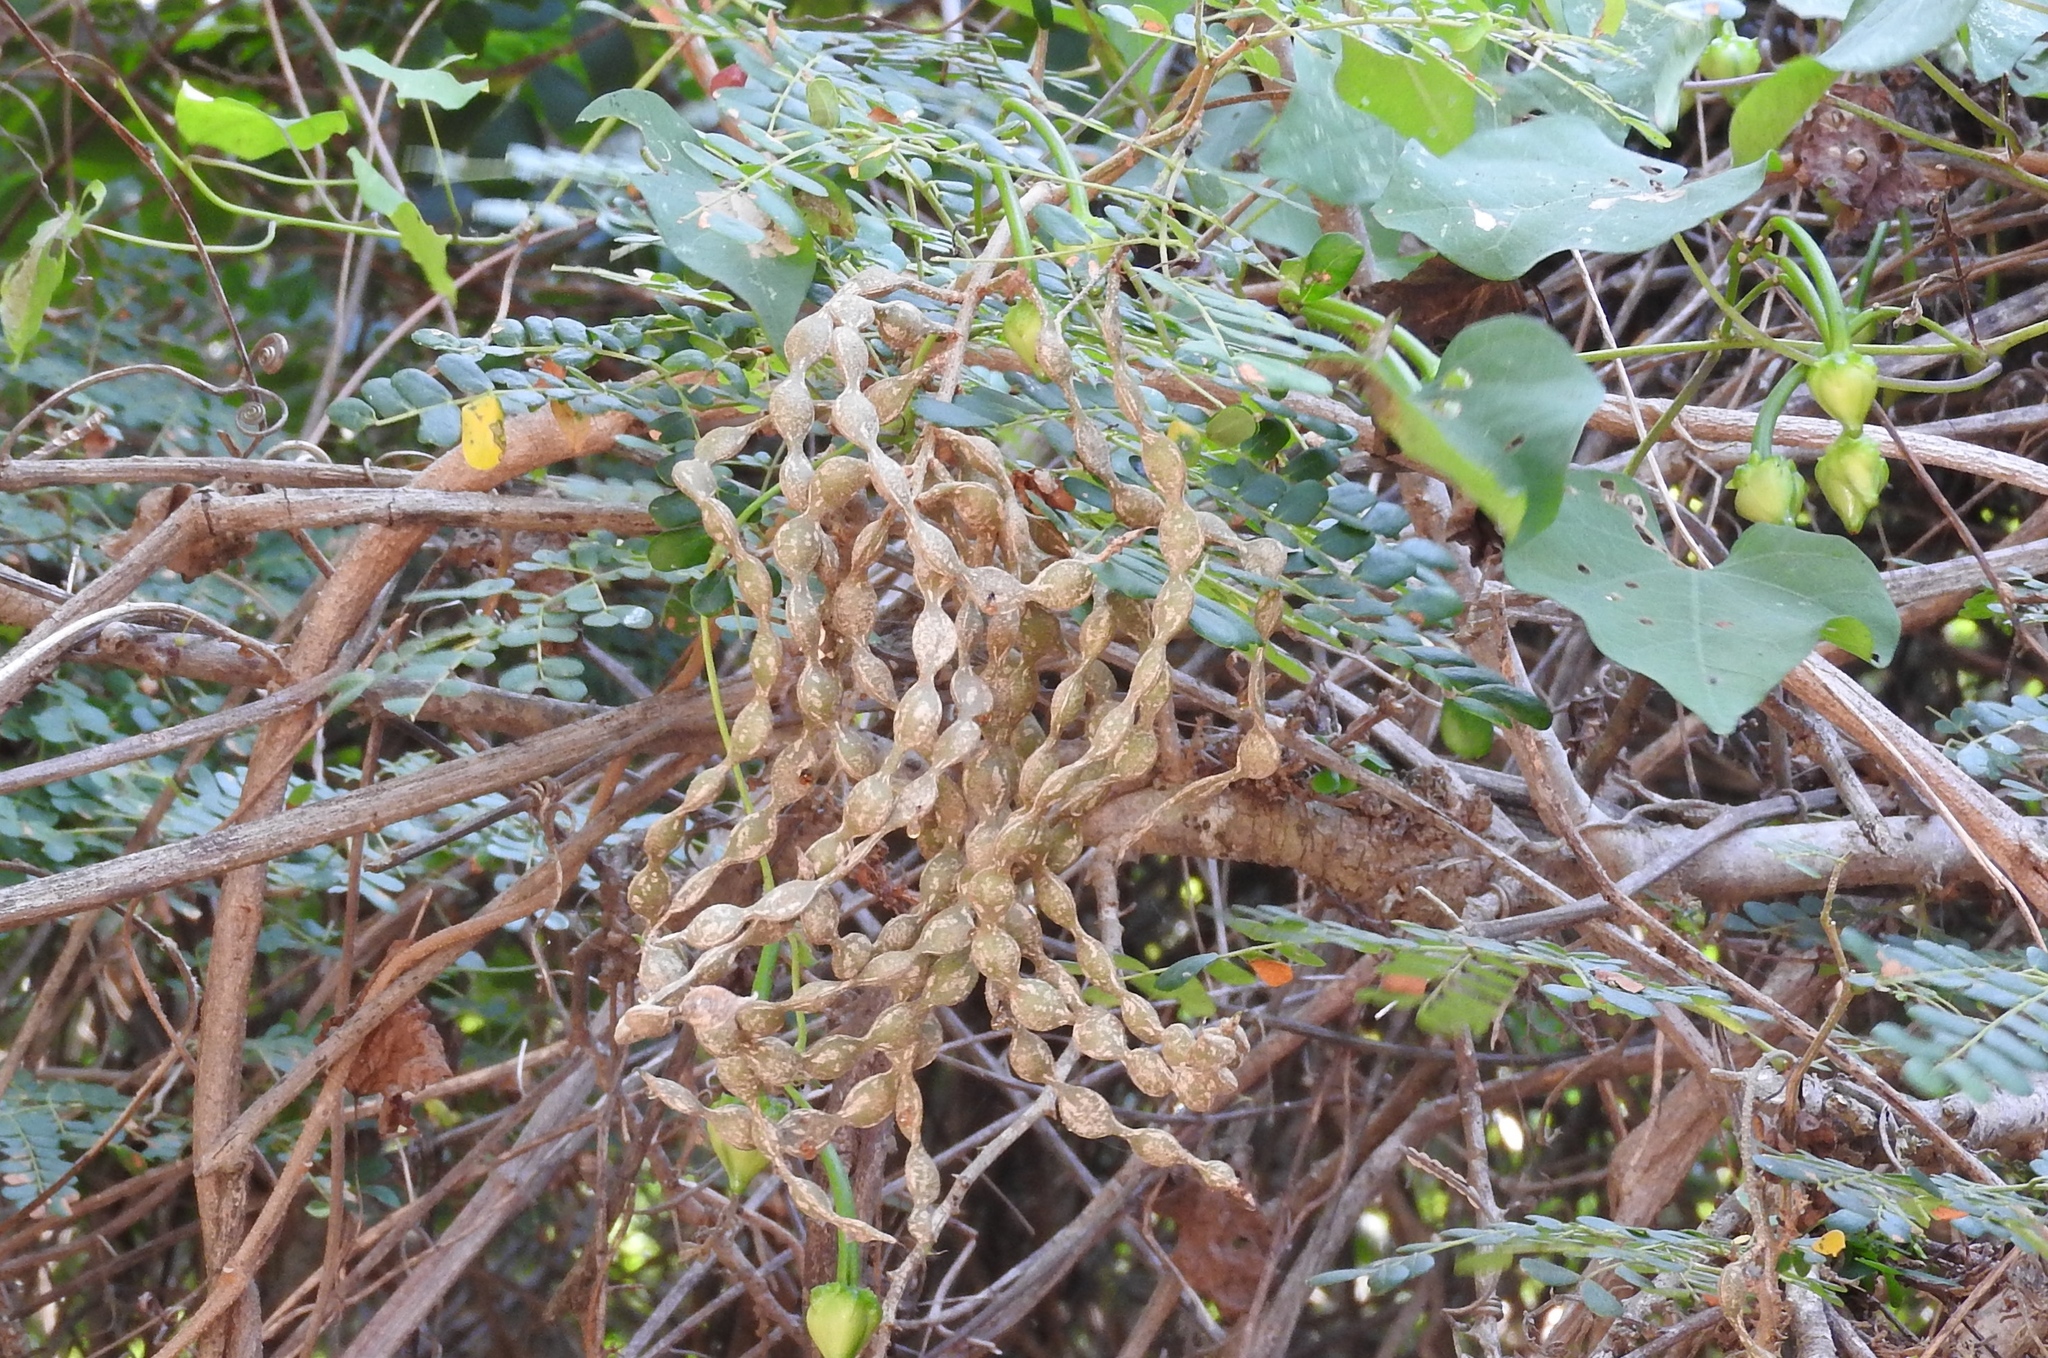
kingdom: Plantae
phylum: Tracheophyta
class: Magnoliopsida
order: Fabales
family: Fabaceae
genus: Pityrocarpa
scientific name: Pityrocarpa obliqua
